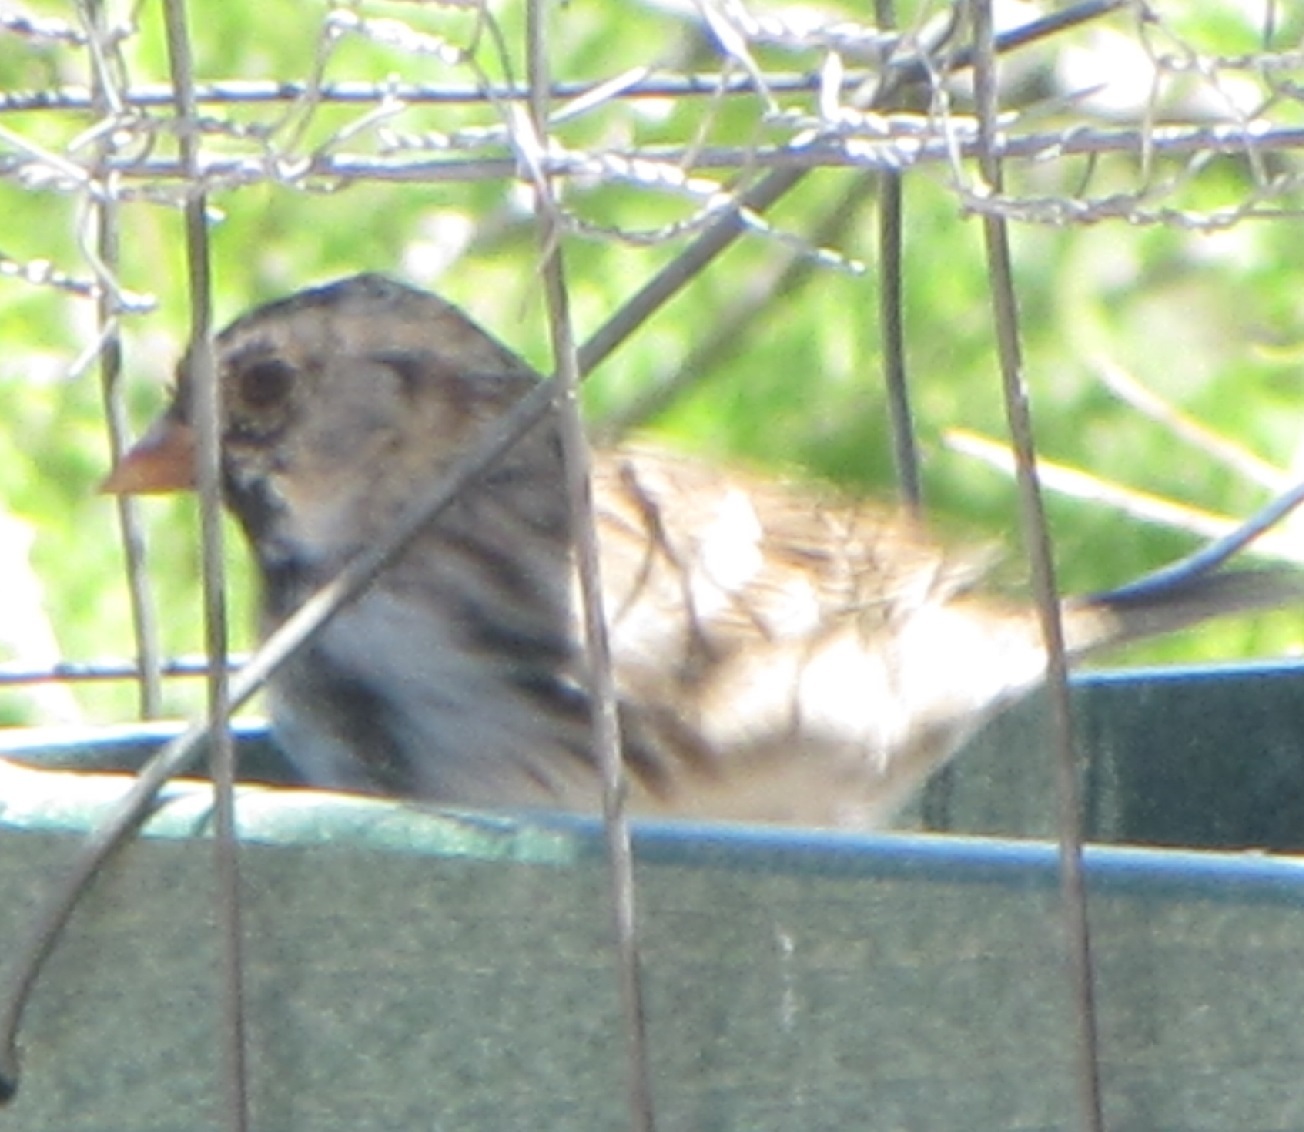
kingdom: Animalia
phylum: Chordata
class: Aves
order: Passeriformes
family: Passerellidae
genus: Zonotrichia
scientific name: Zonotrichia querula
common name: Harris's sparrow
